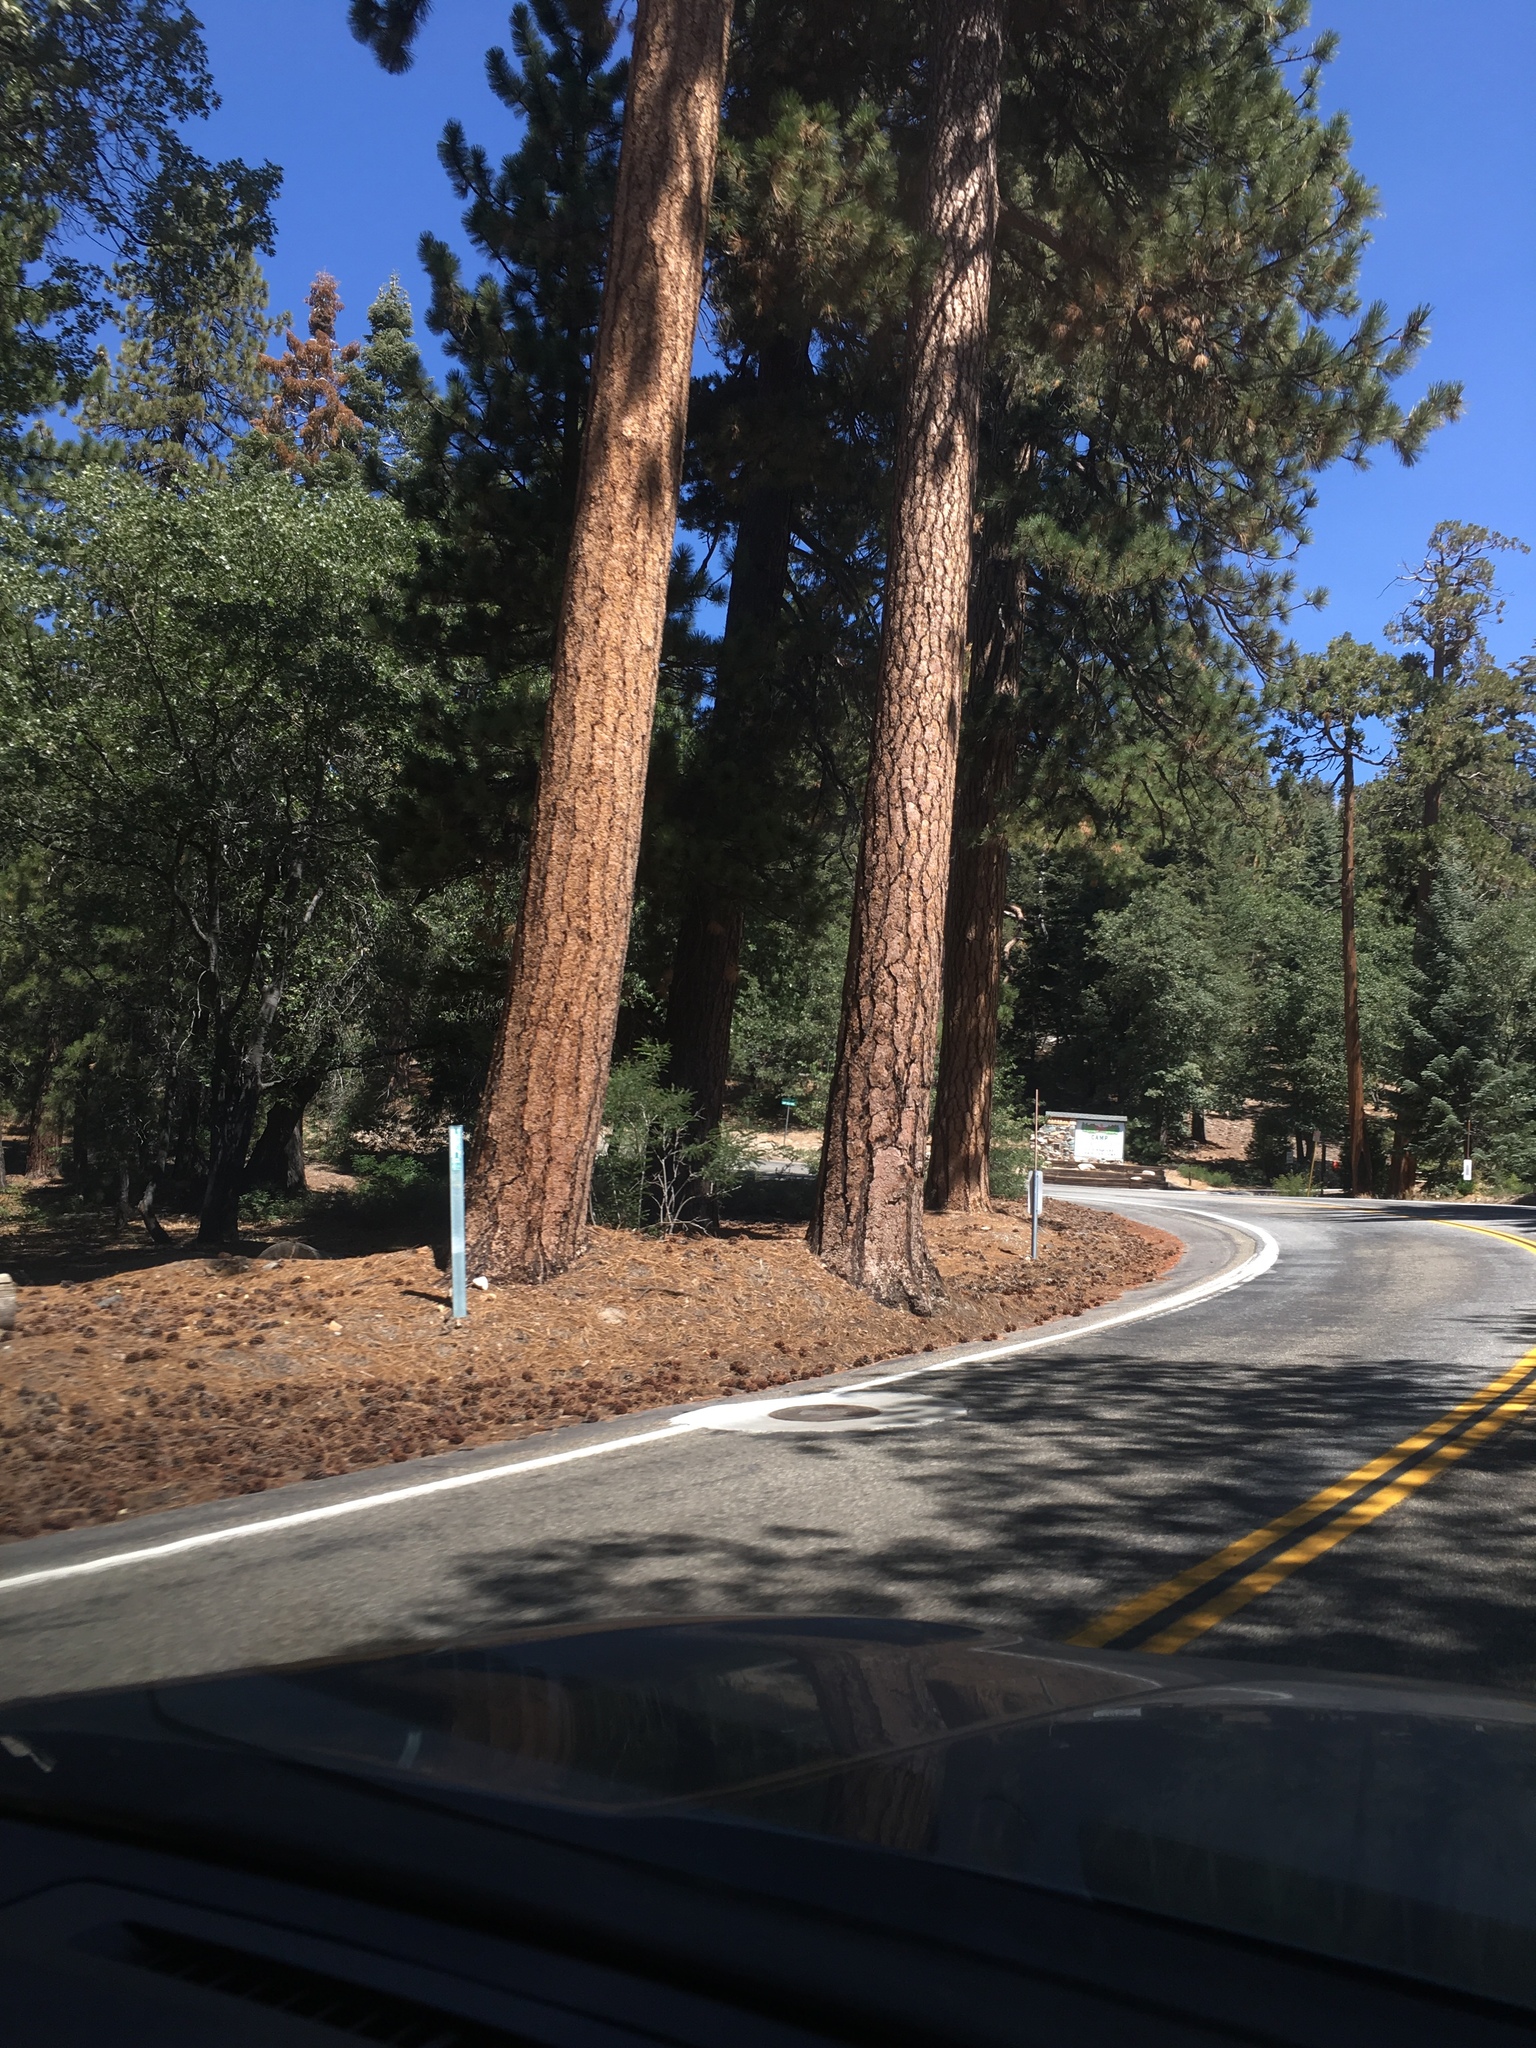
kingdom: Plantae
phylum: Tracheophyta
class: Pinopsida
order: Pinales
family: Pinaceae
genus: Pinus
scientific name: Pinus ponderosa
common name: Western yellow-pine
